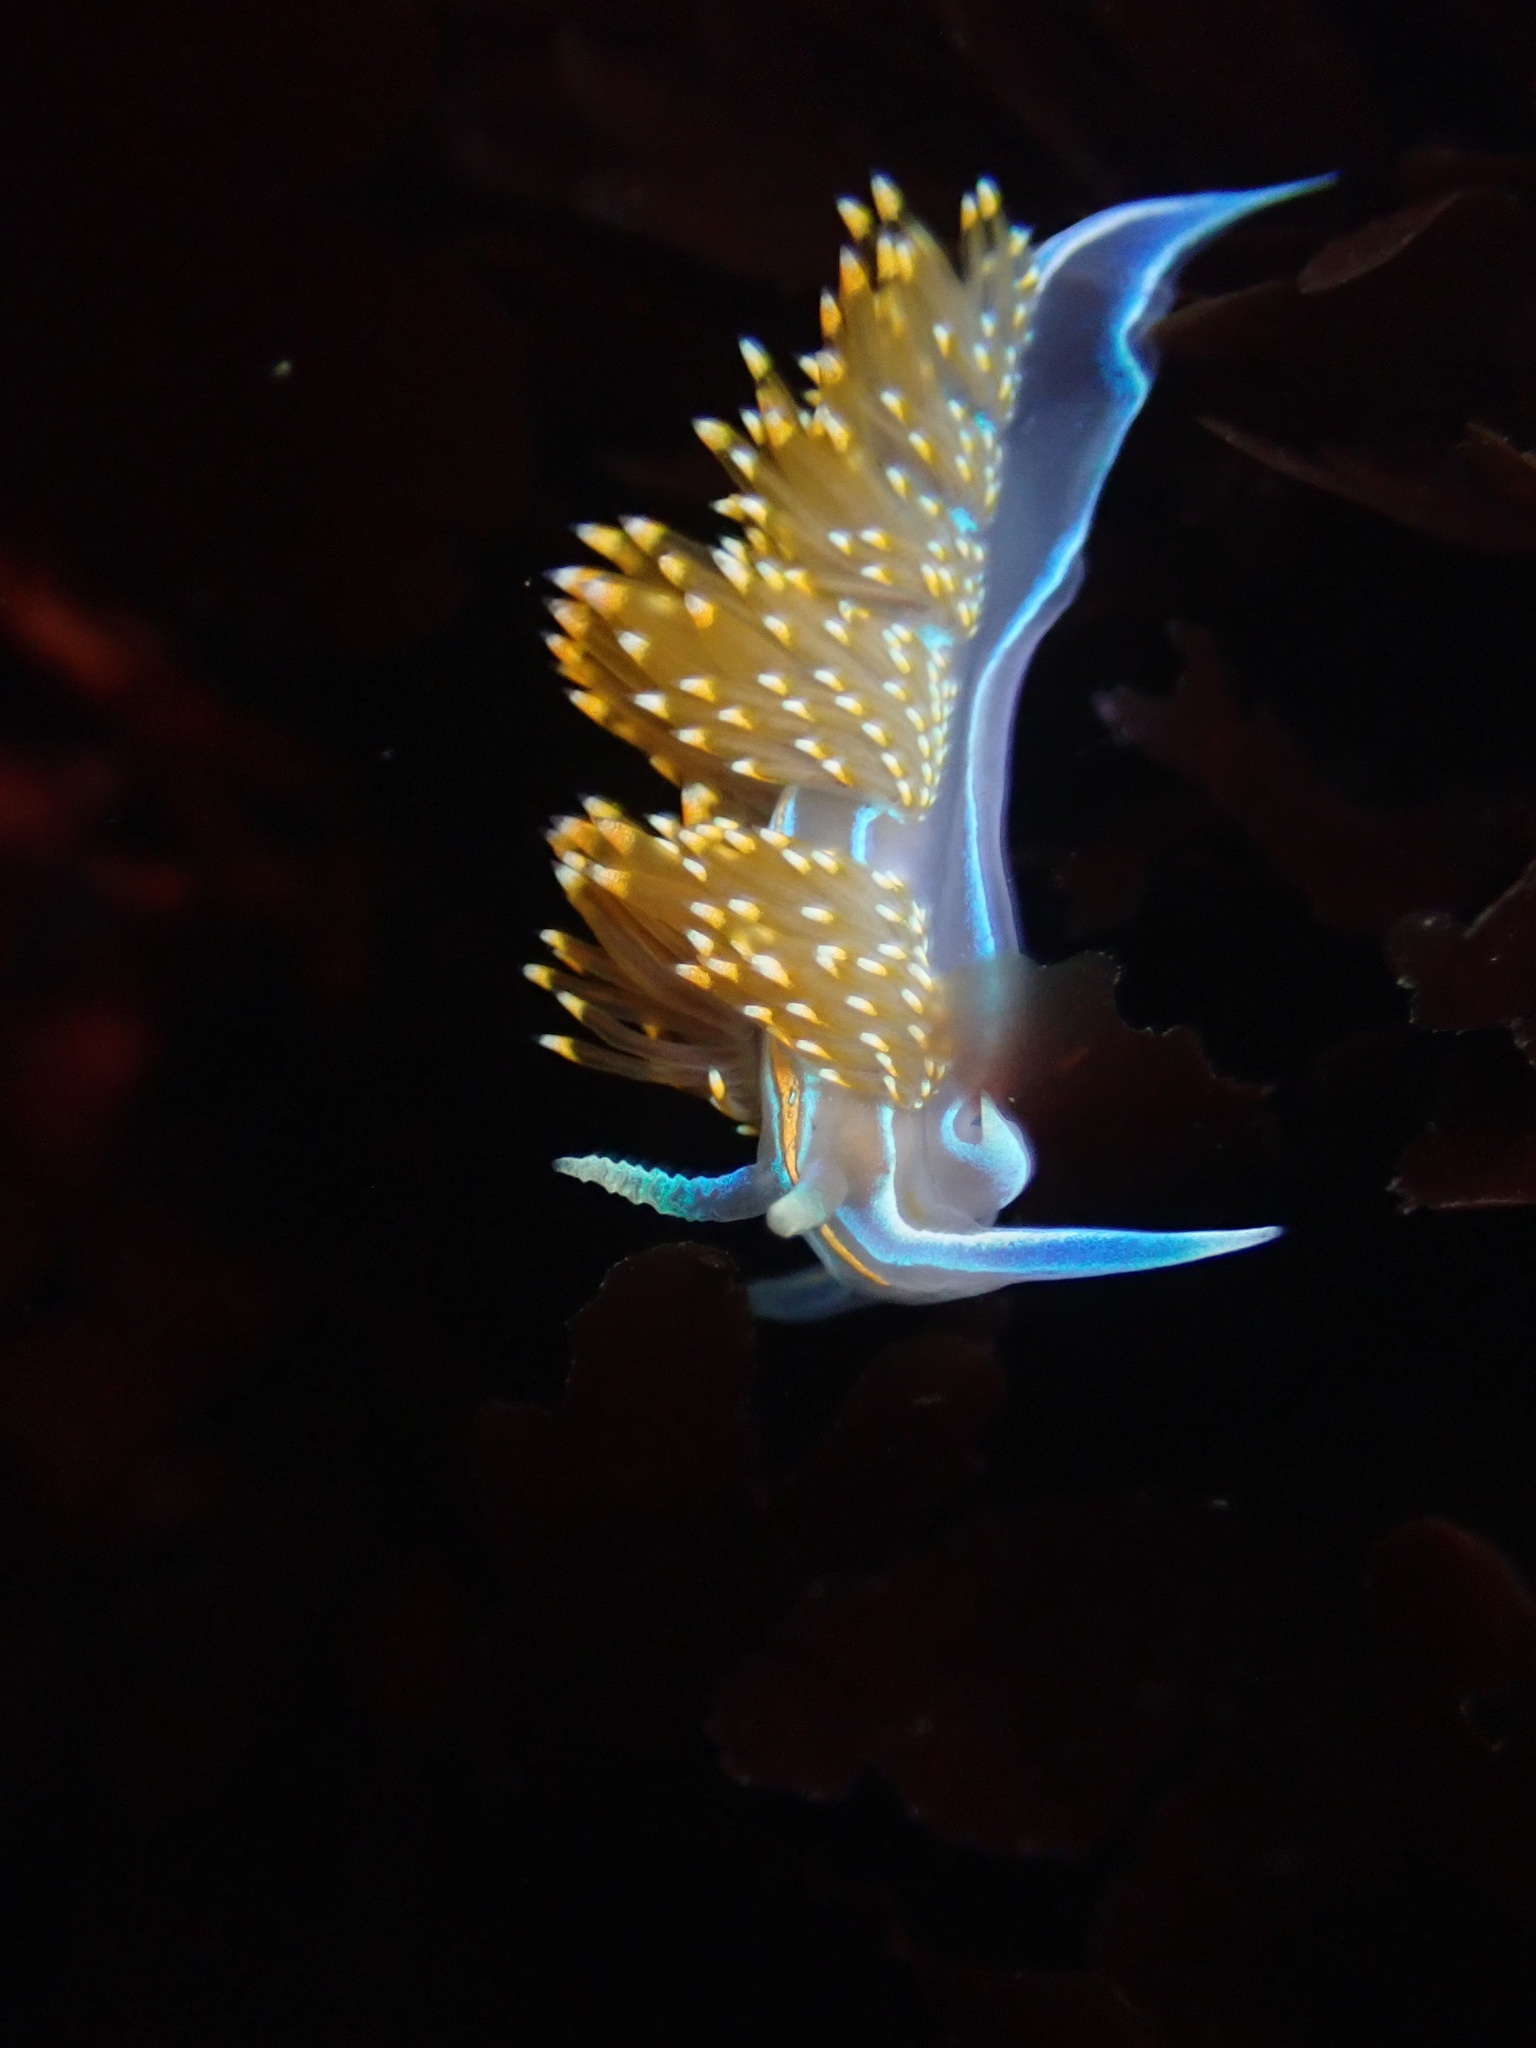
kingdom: Animalia
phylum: Mollusca
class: Gastropoda
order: Nudibranchia
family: Myrrhinidae
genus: Hermissenda
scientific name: Hermissenda opalescens
